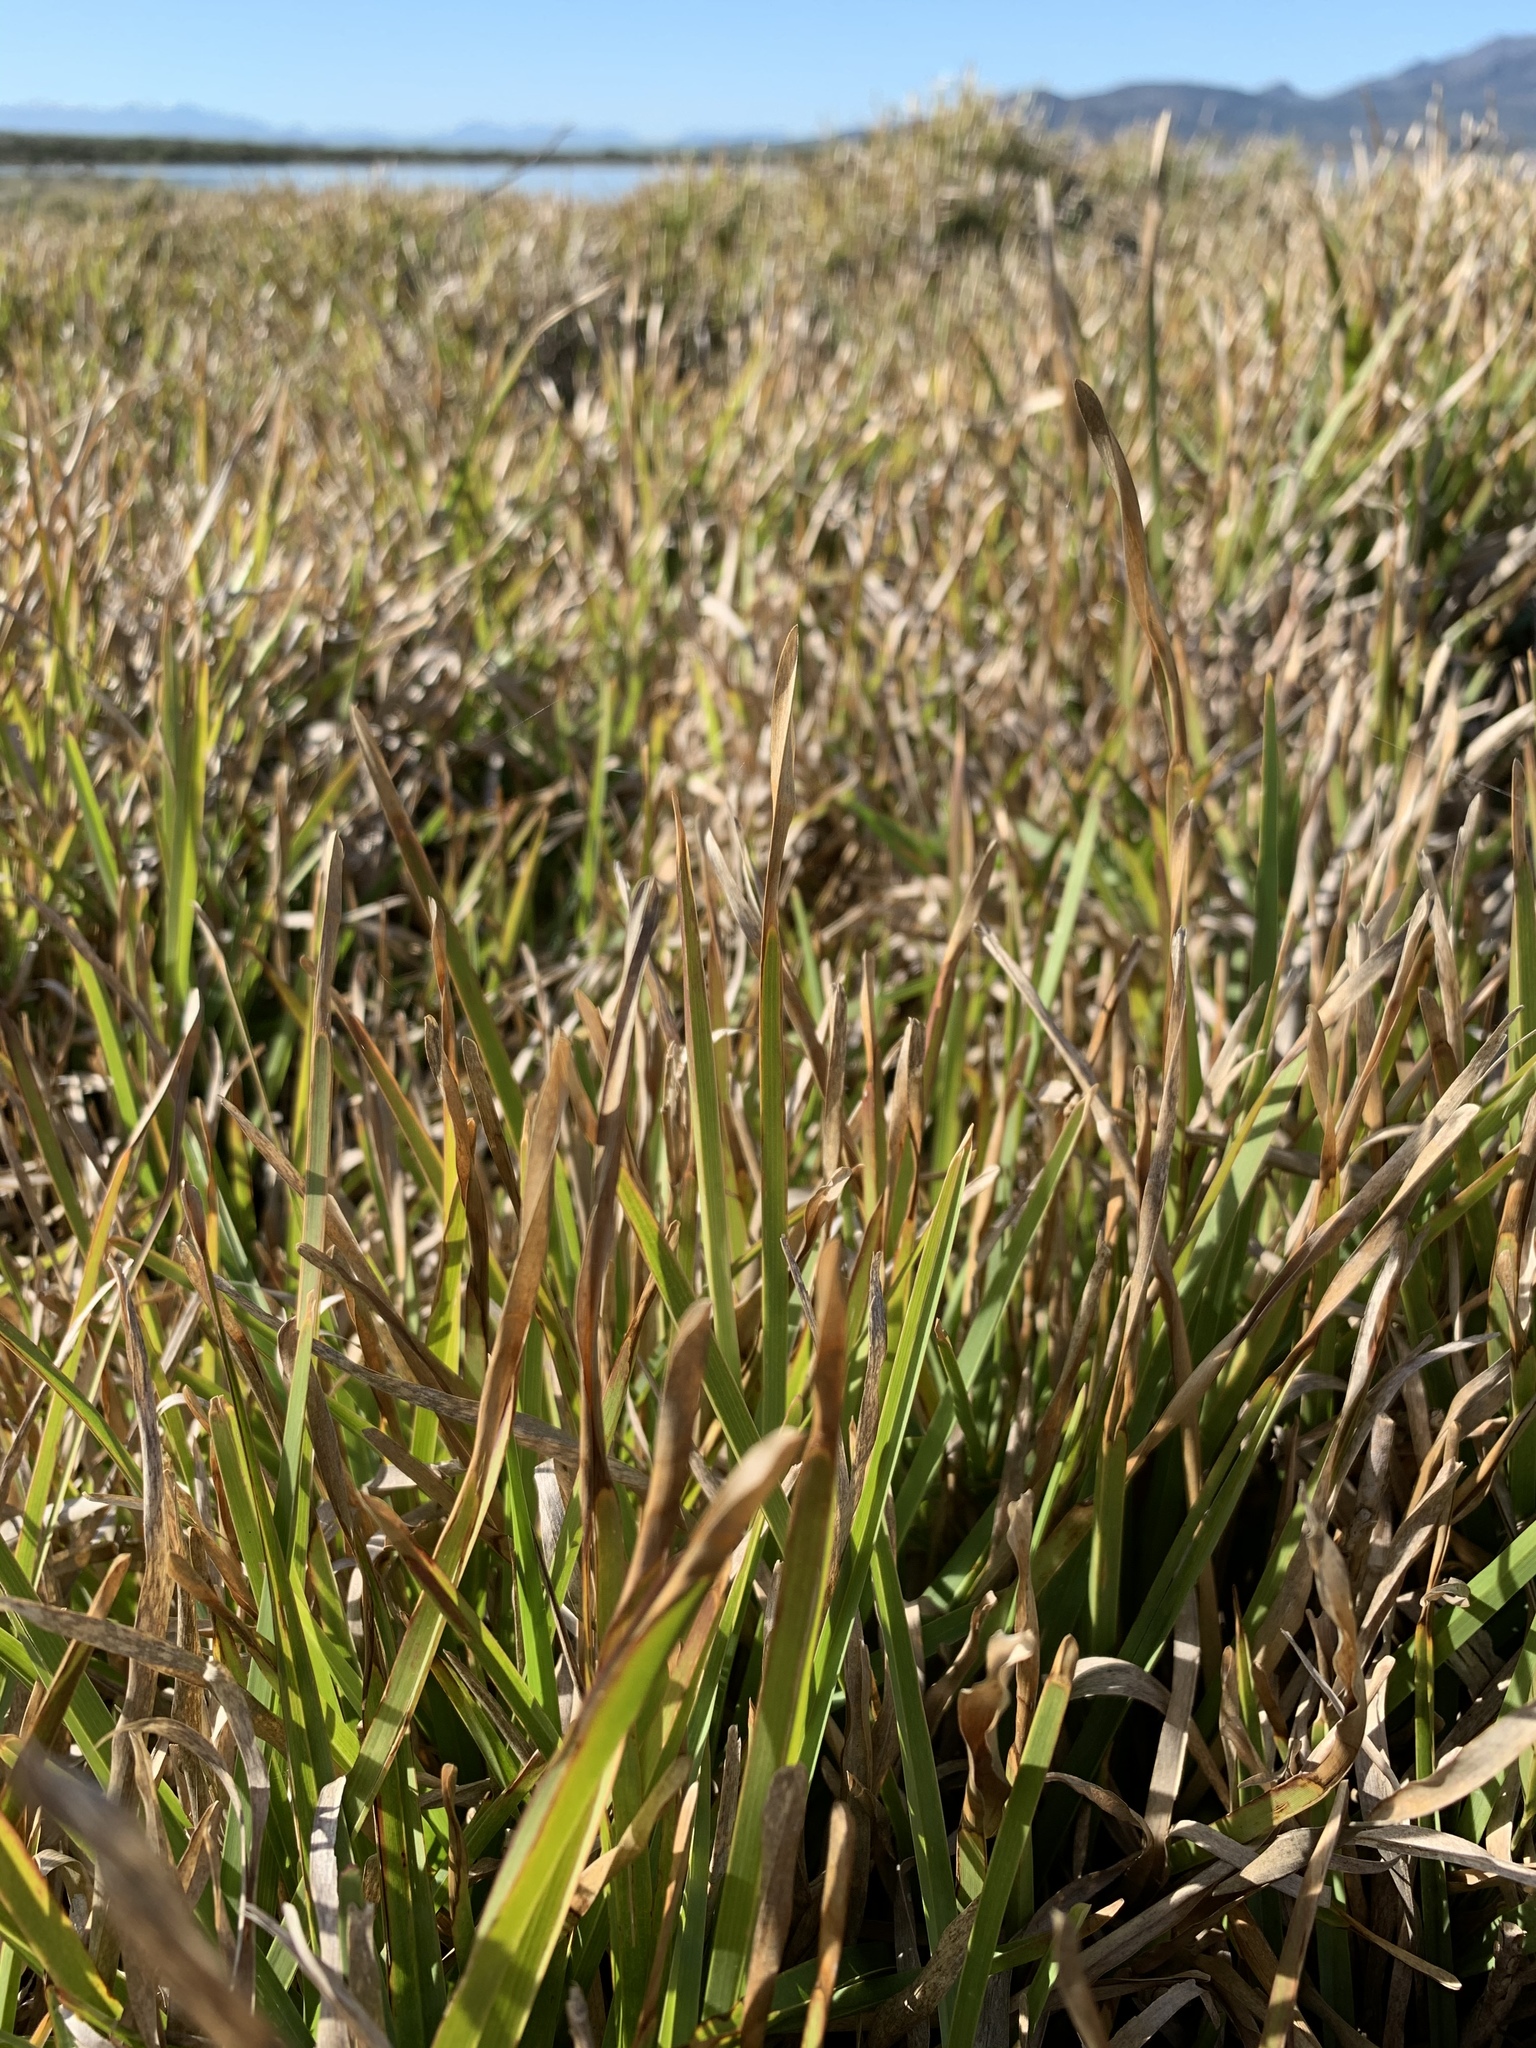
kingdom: Plantae
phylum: Tracheophyta
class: Liliopsida
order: Poales
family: Poaceae
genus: Stenotaphrum
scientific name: Stenotaphrum secundatum
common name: St. augustine grass
